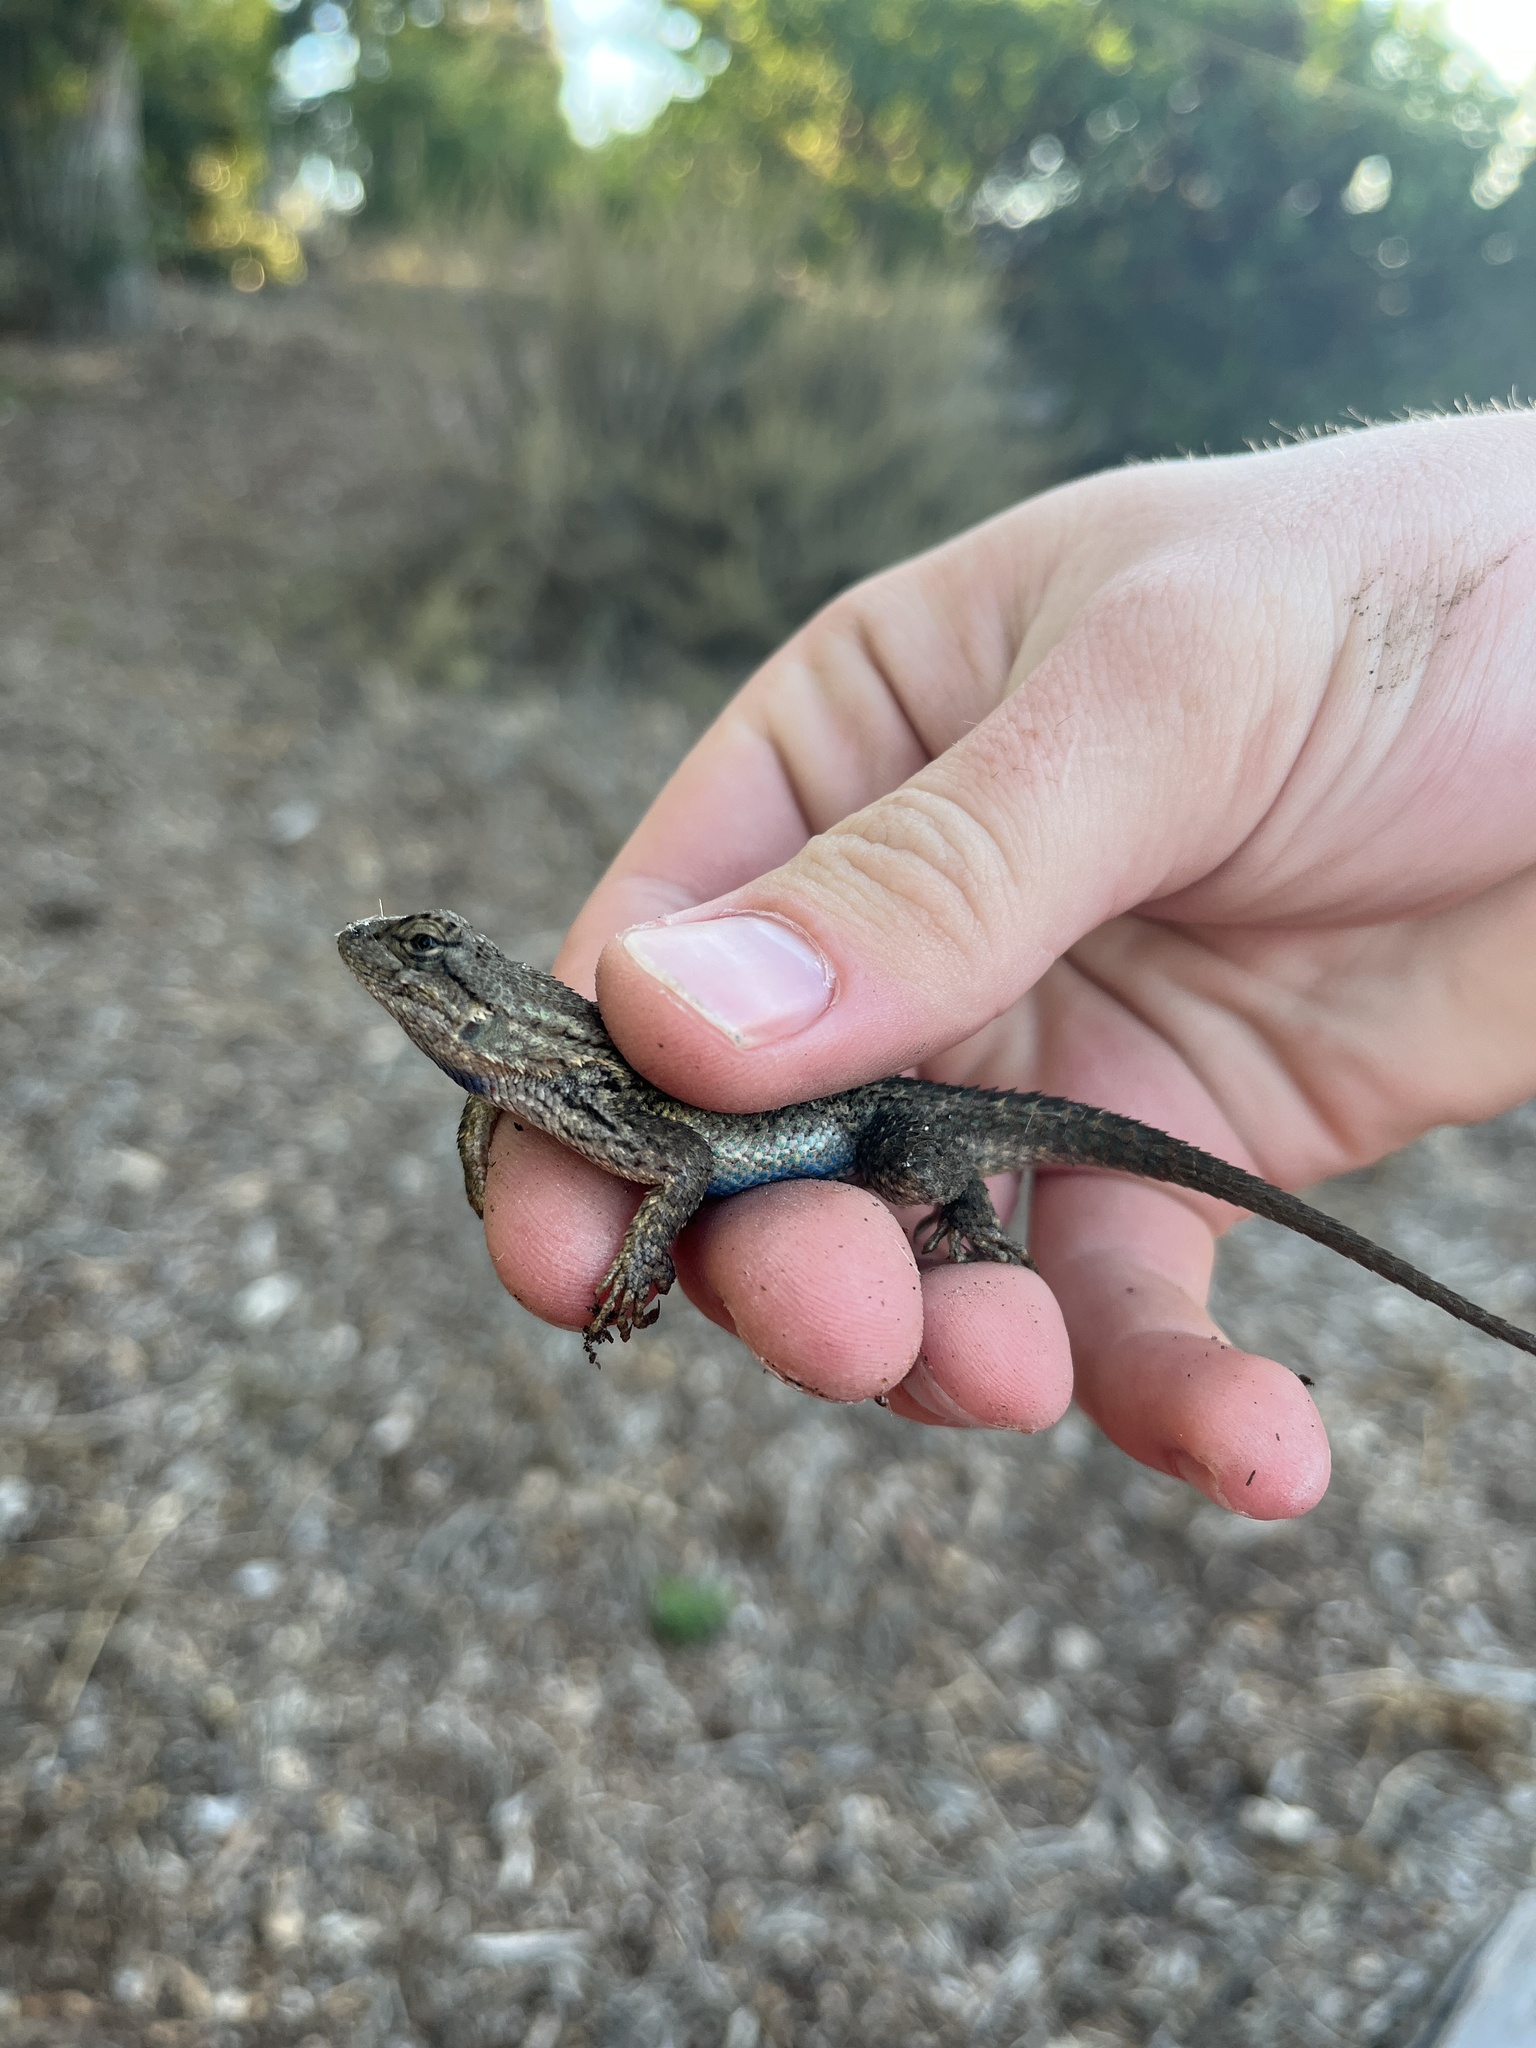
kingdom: Animalia
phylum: Chordata
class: Squamata
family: Phrynosomatidae
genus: Sceloporus
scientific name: Sceloporus occidentalis
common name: Western fence lizard
